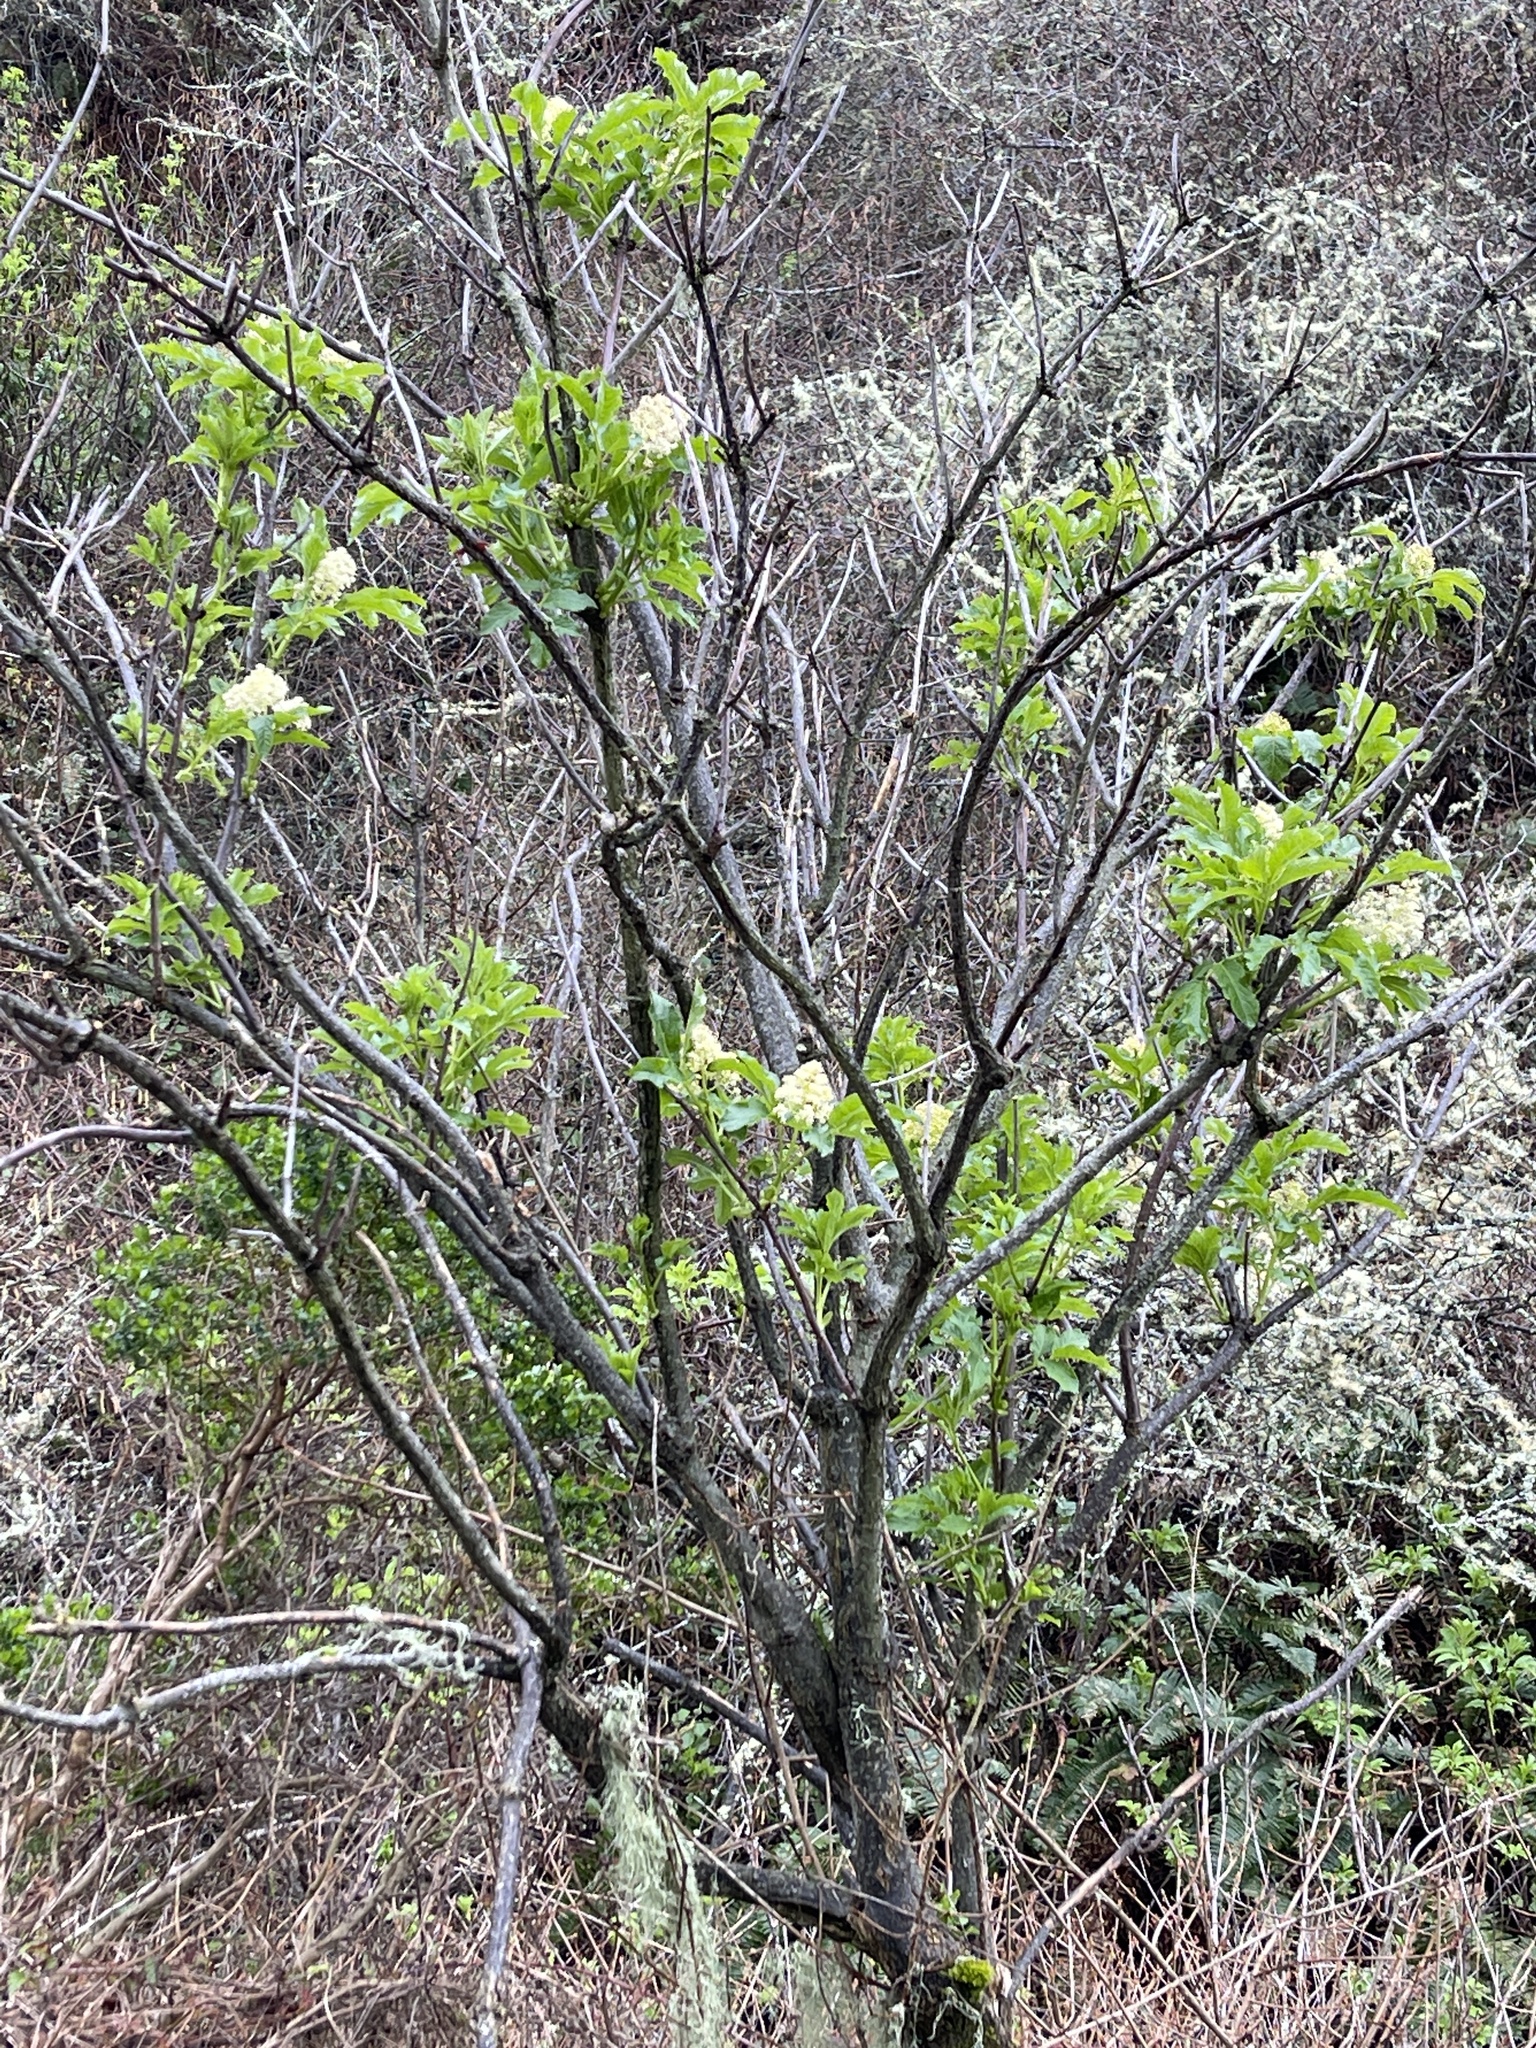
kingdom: Plantae
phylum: Tracheophyta
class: Magnoliopsida
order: Dipsacales
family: Viburnaceae
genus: Sambucus
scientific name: Sambucus racemosa
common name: Red-berried elder
